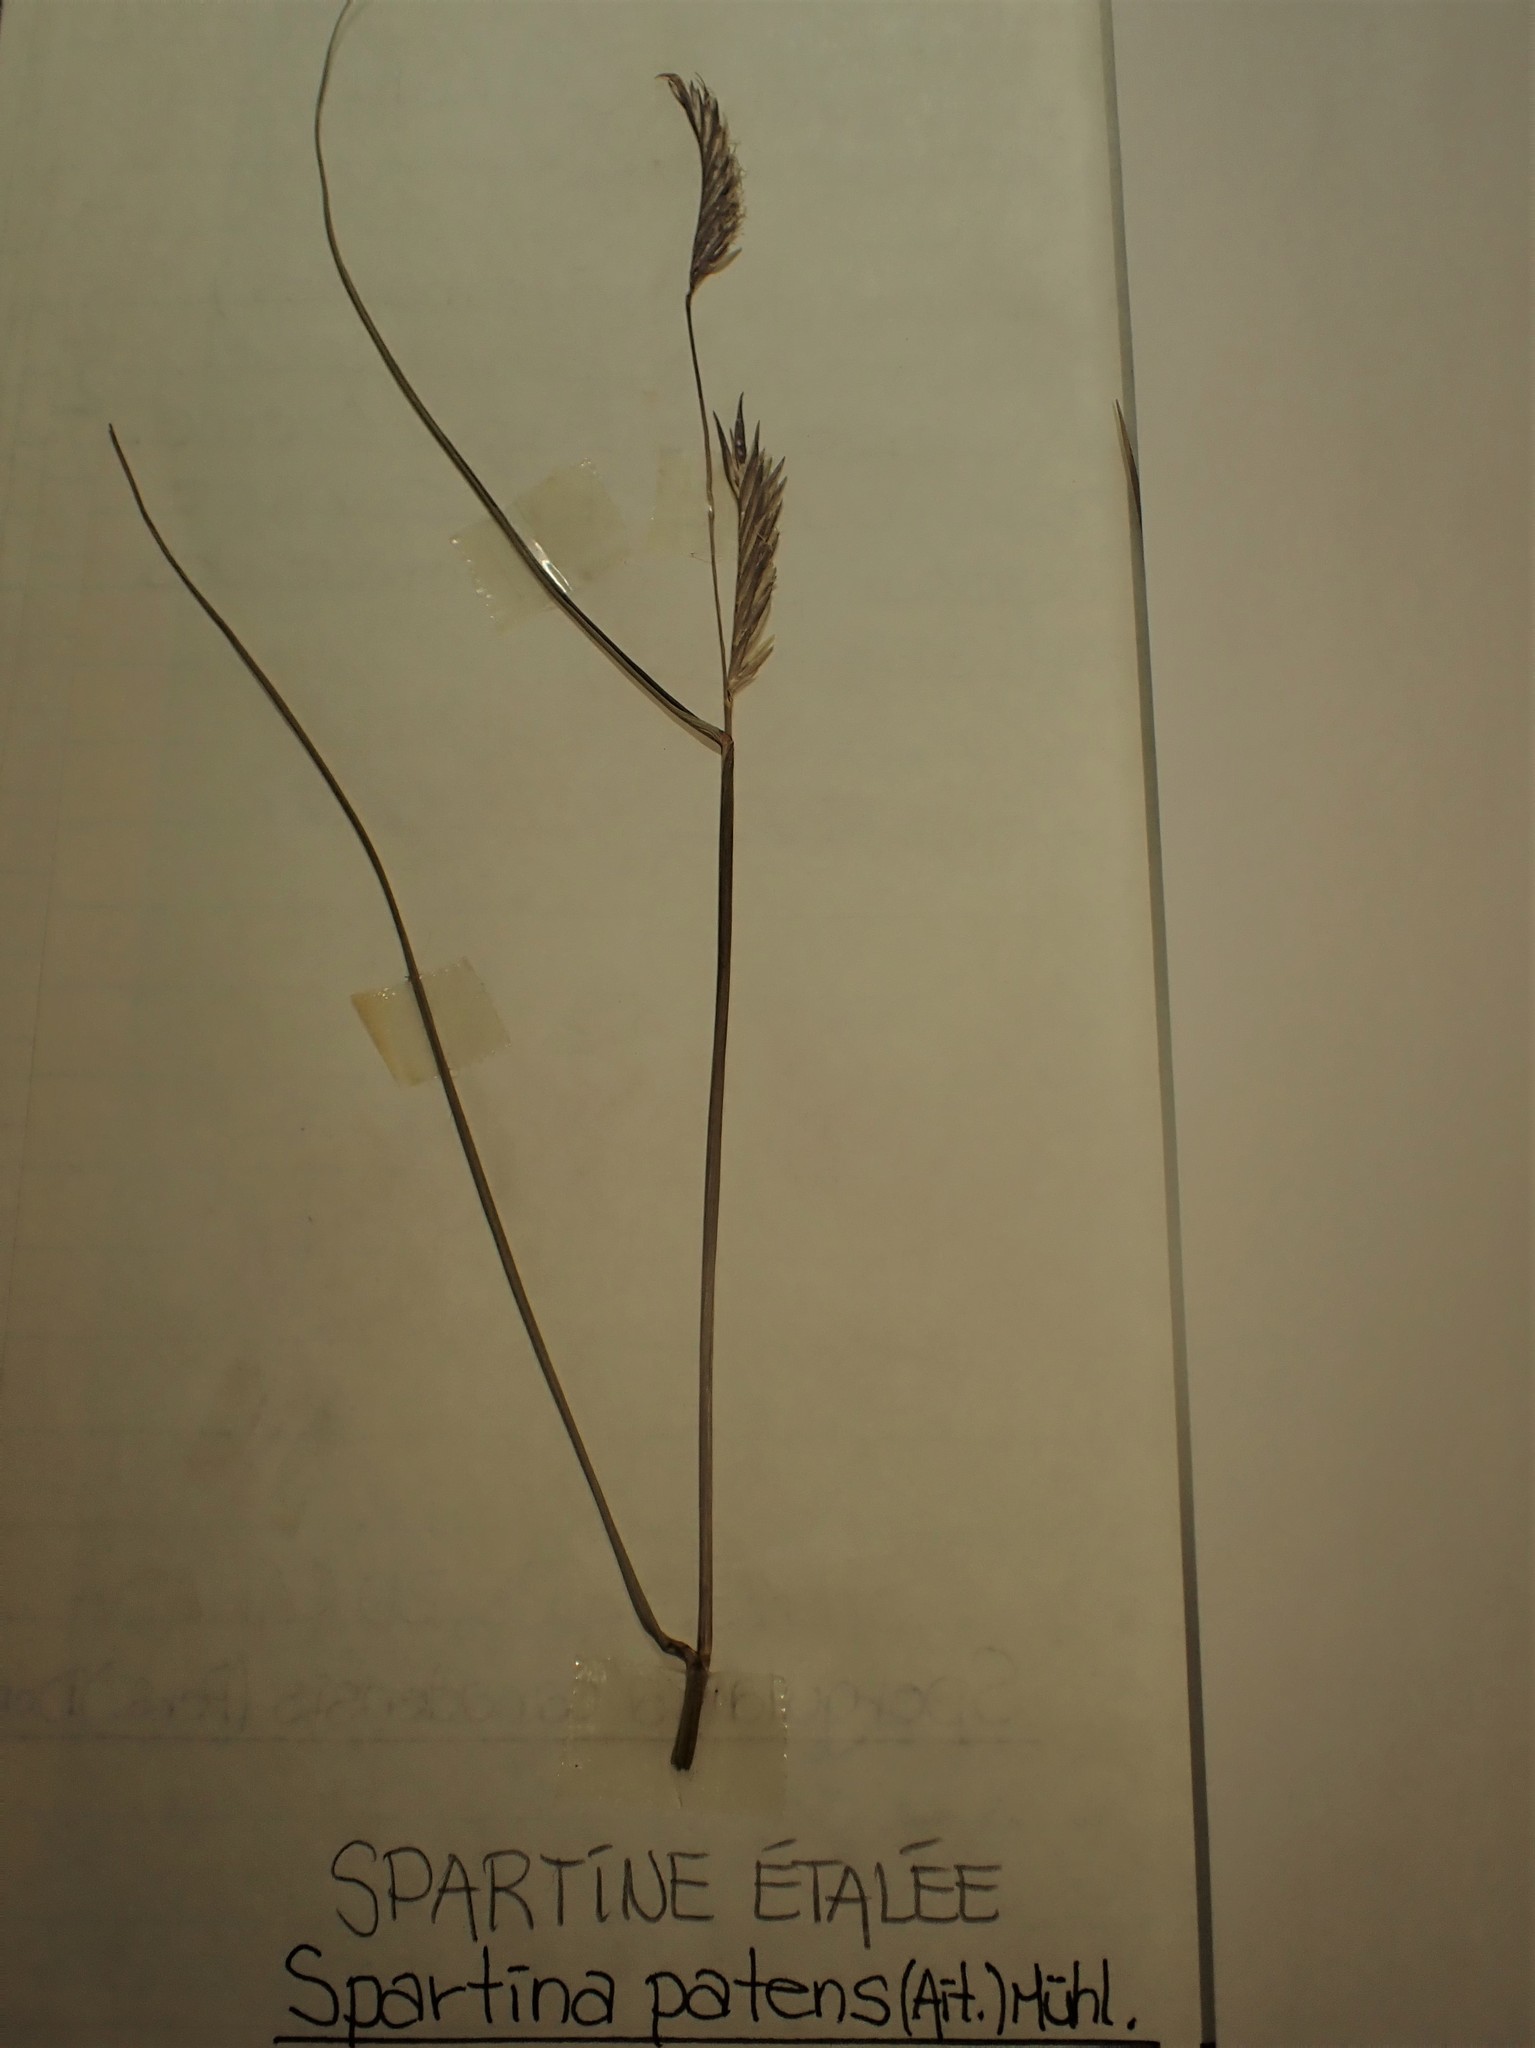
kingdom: Plantae
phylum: Tracheophyta
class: Liliopsida
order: Poales
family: Poaceae
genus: Sporobolus
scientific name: Sporobolus pumilus
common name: Highwater grass
